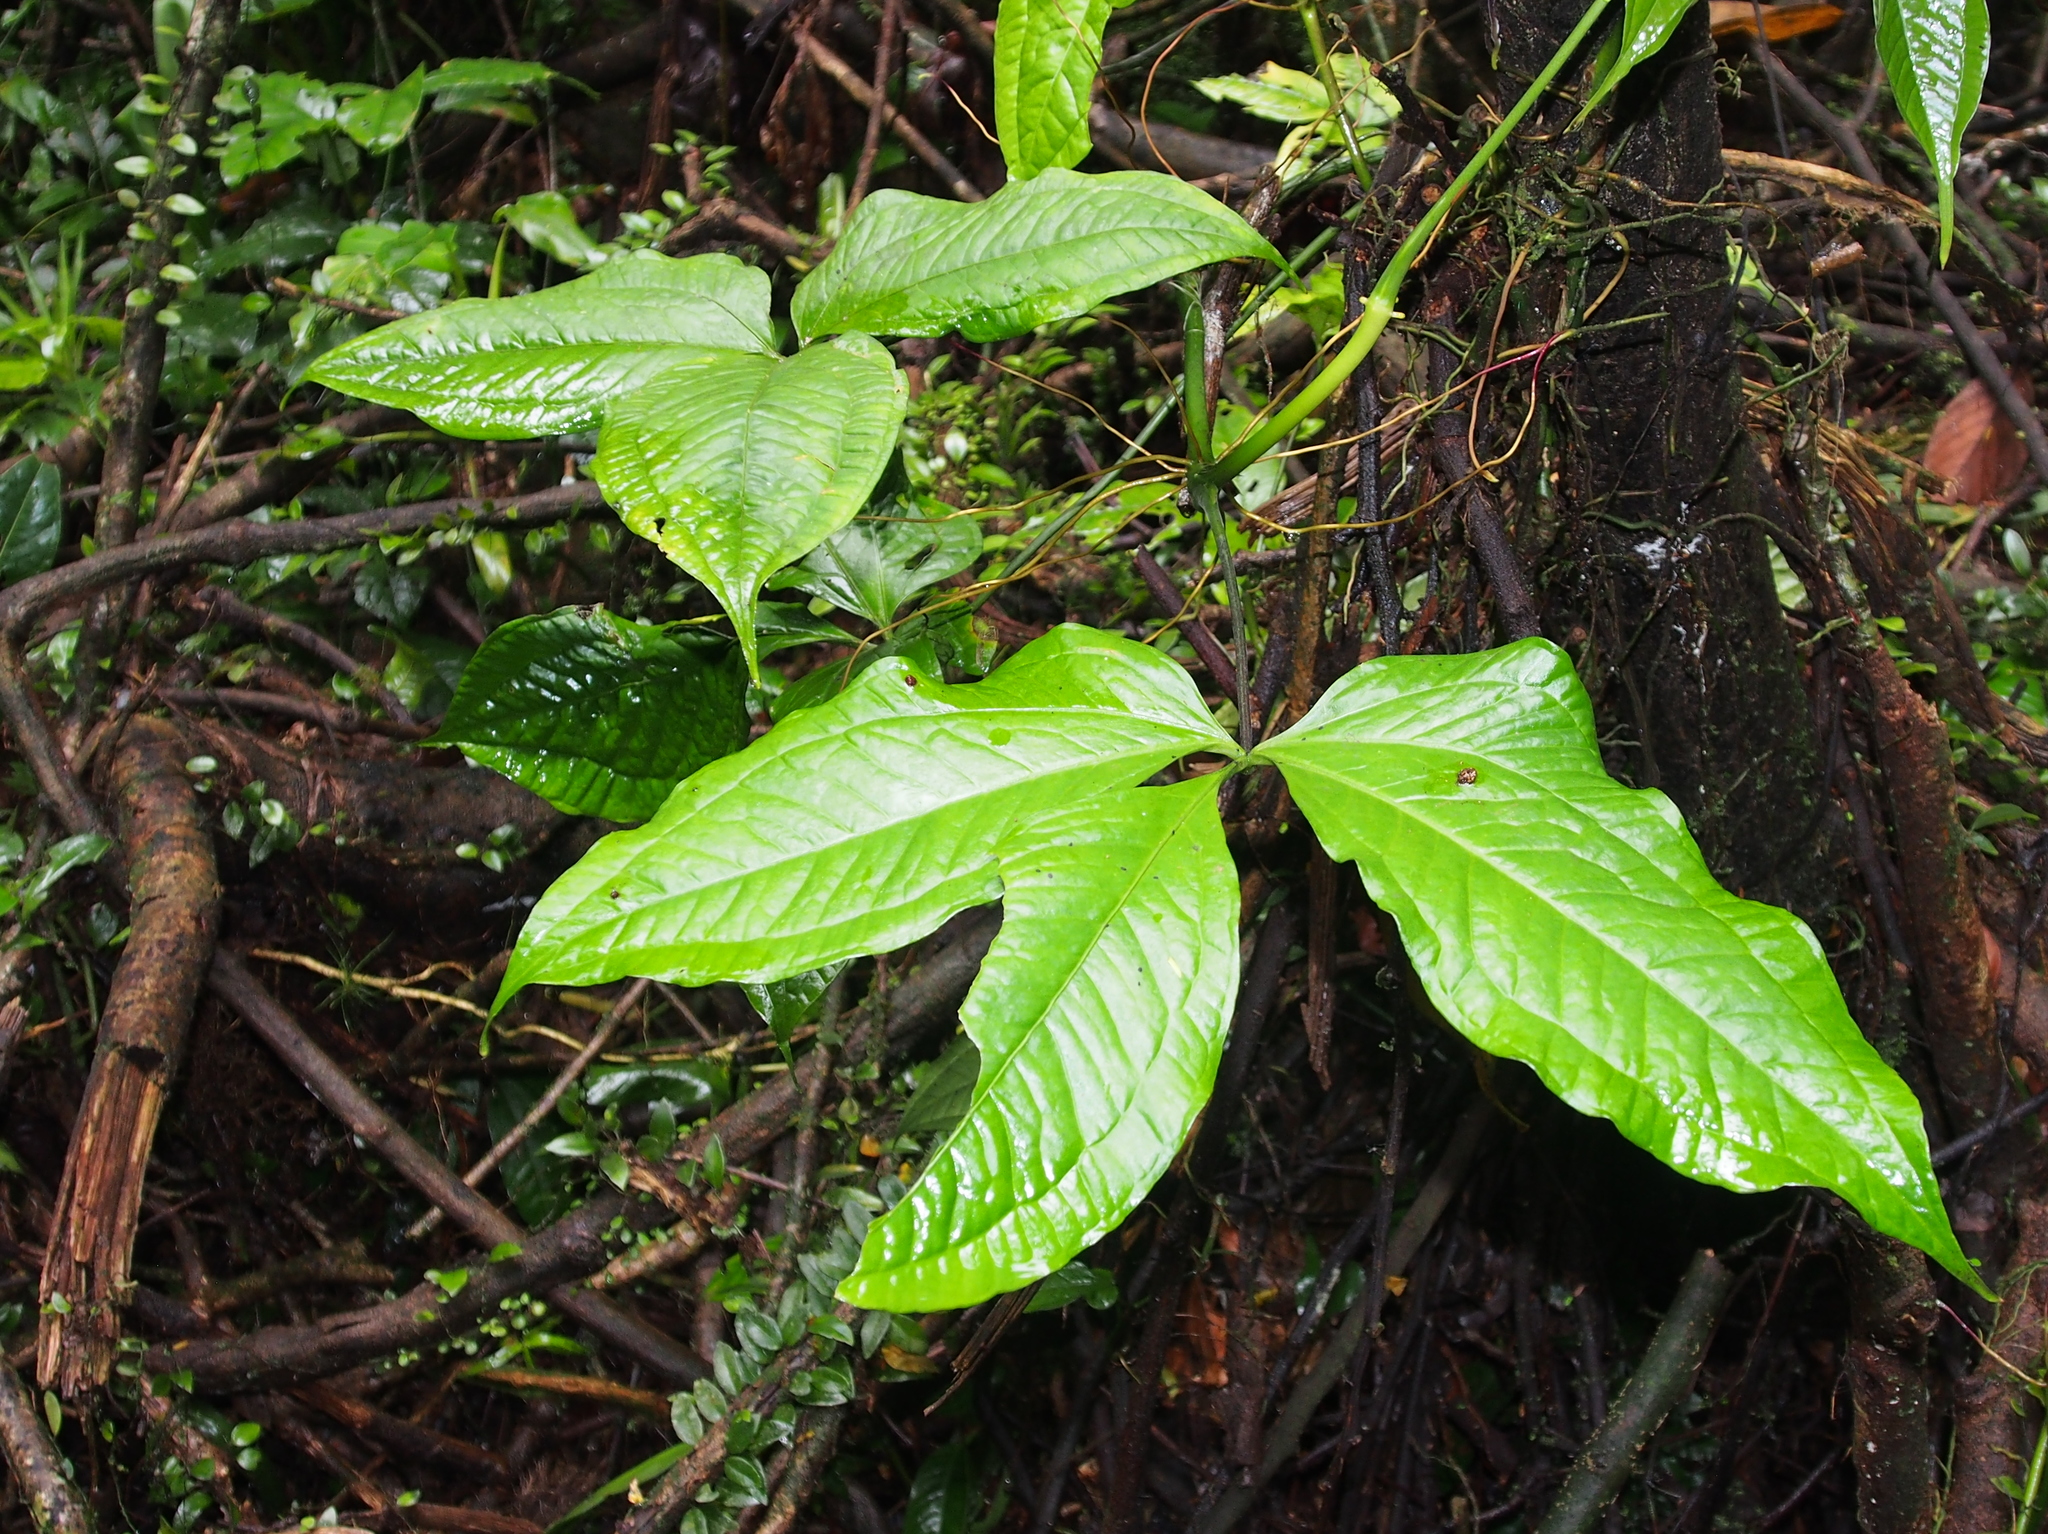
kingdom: Plantae
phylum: Tracheophyta
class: Liliopsida
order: Alismatales
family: Araceae
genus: Anthurium
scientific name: Anthurium clavigerum
